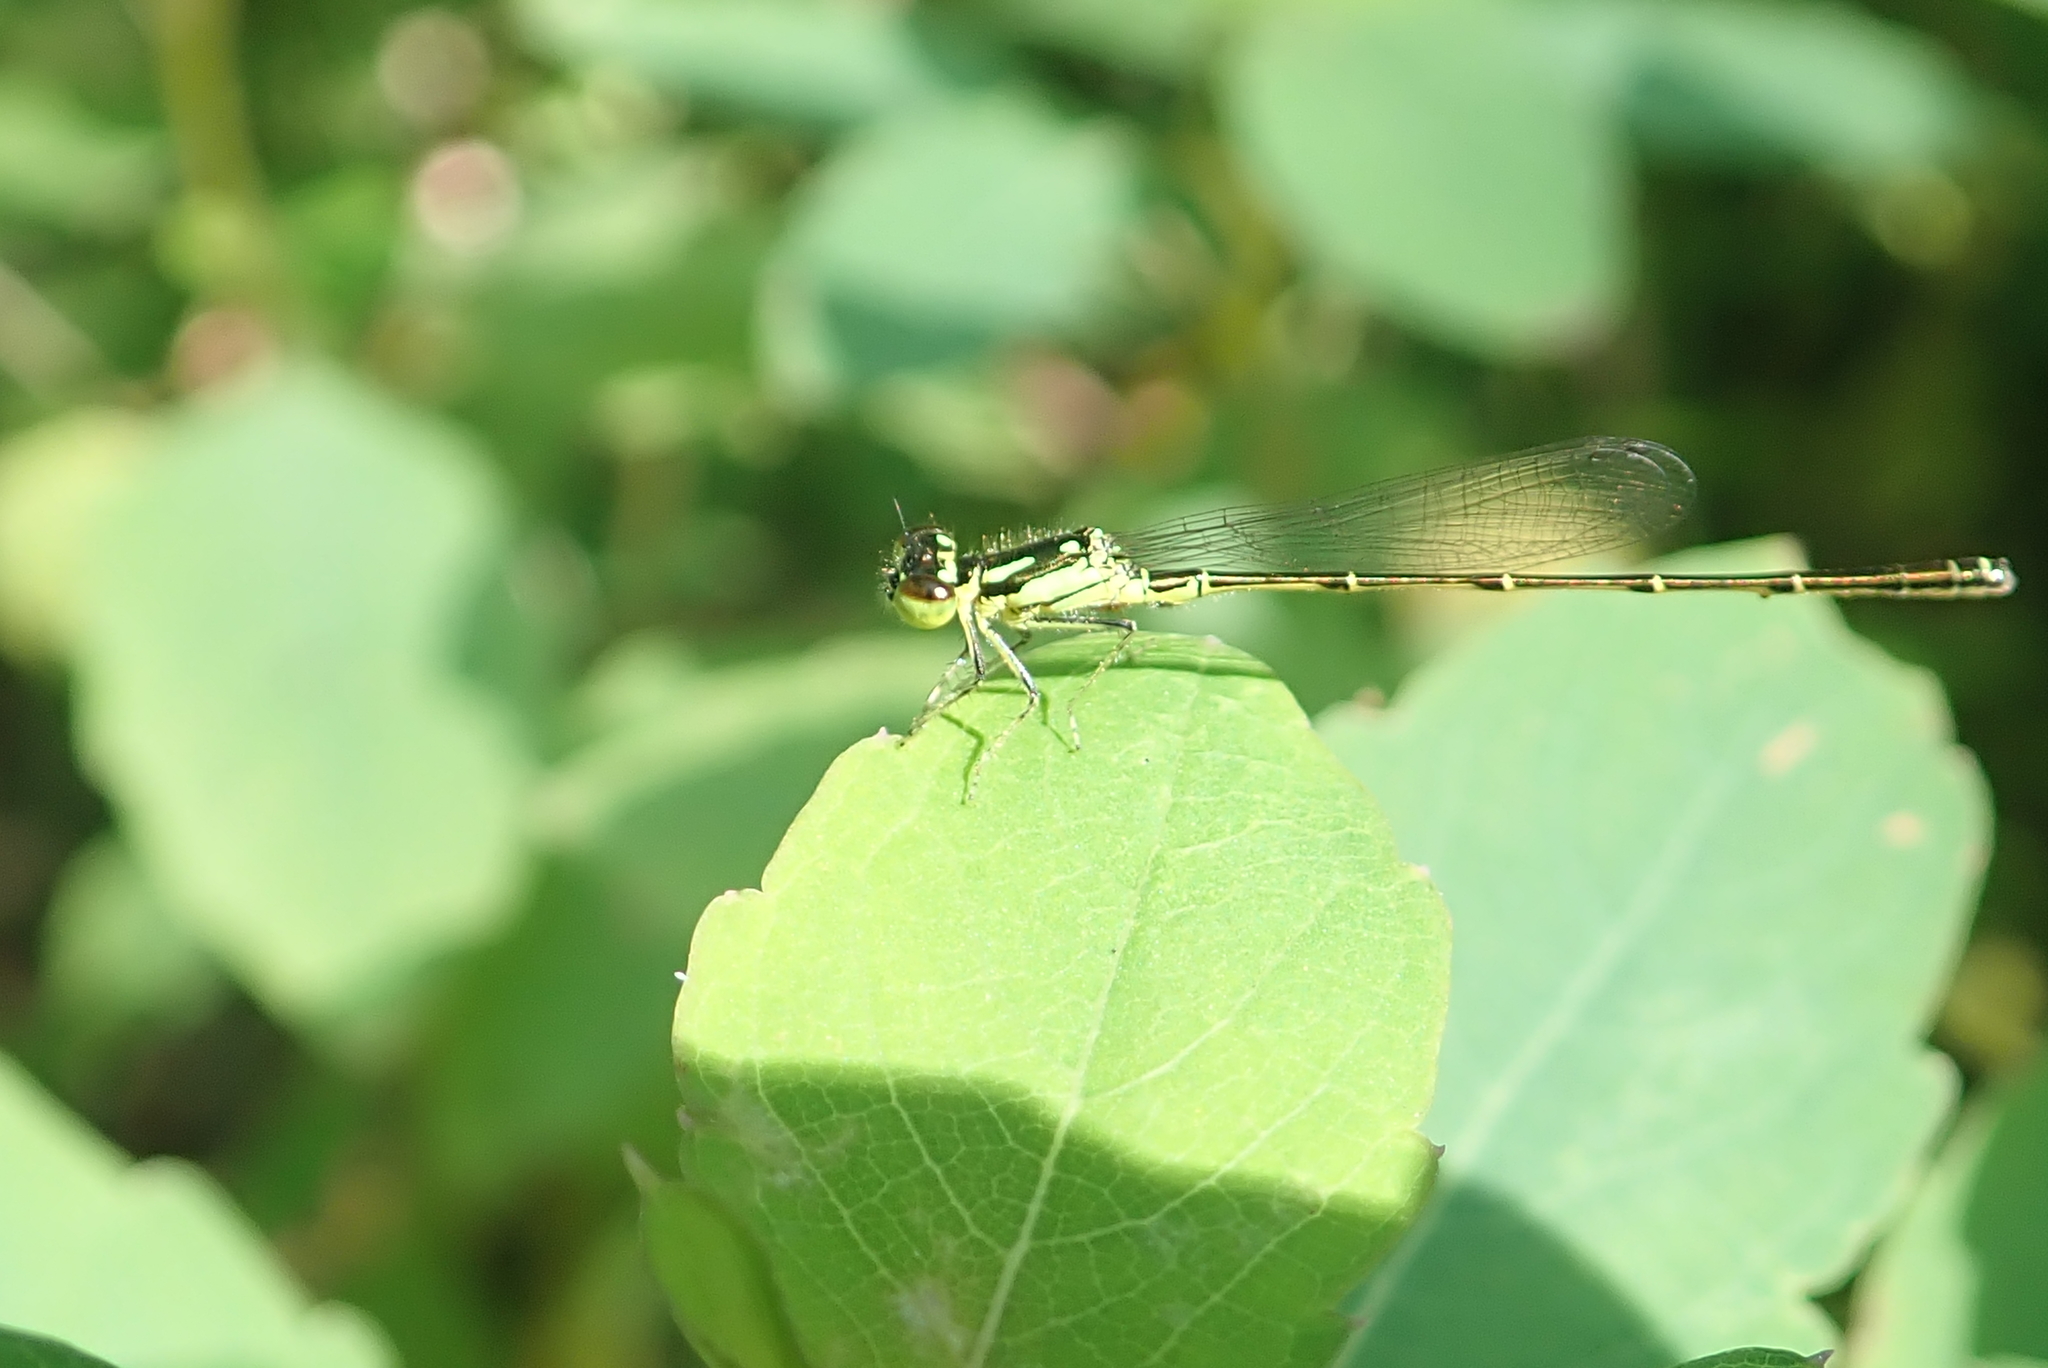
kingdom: Animalia
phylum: Arthropoda
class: Insecta
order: Odonata
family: Coenagrionidae
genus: Ischnura
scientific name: Ischnura posita
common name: Fragile forktail
